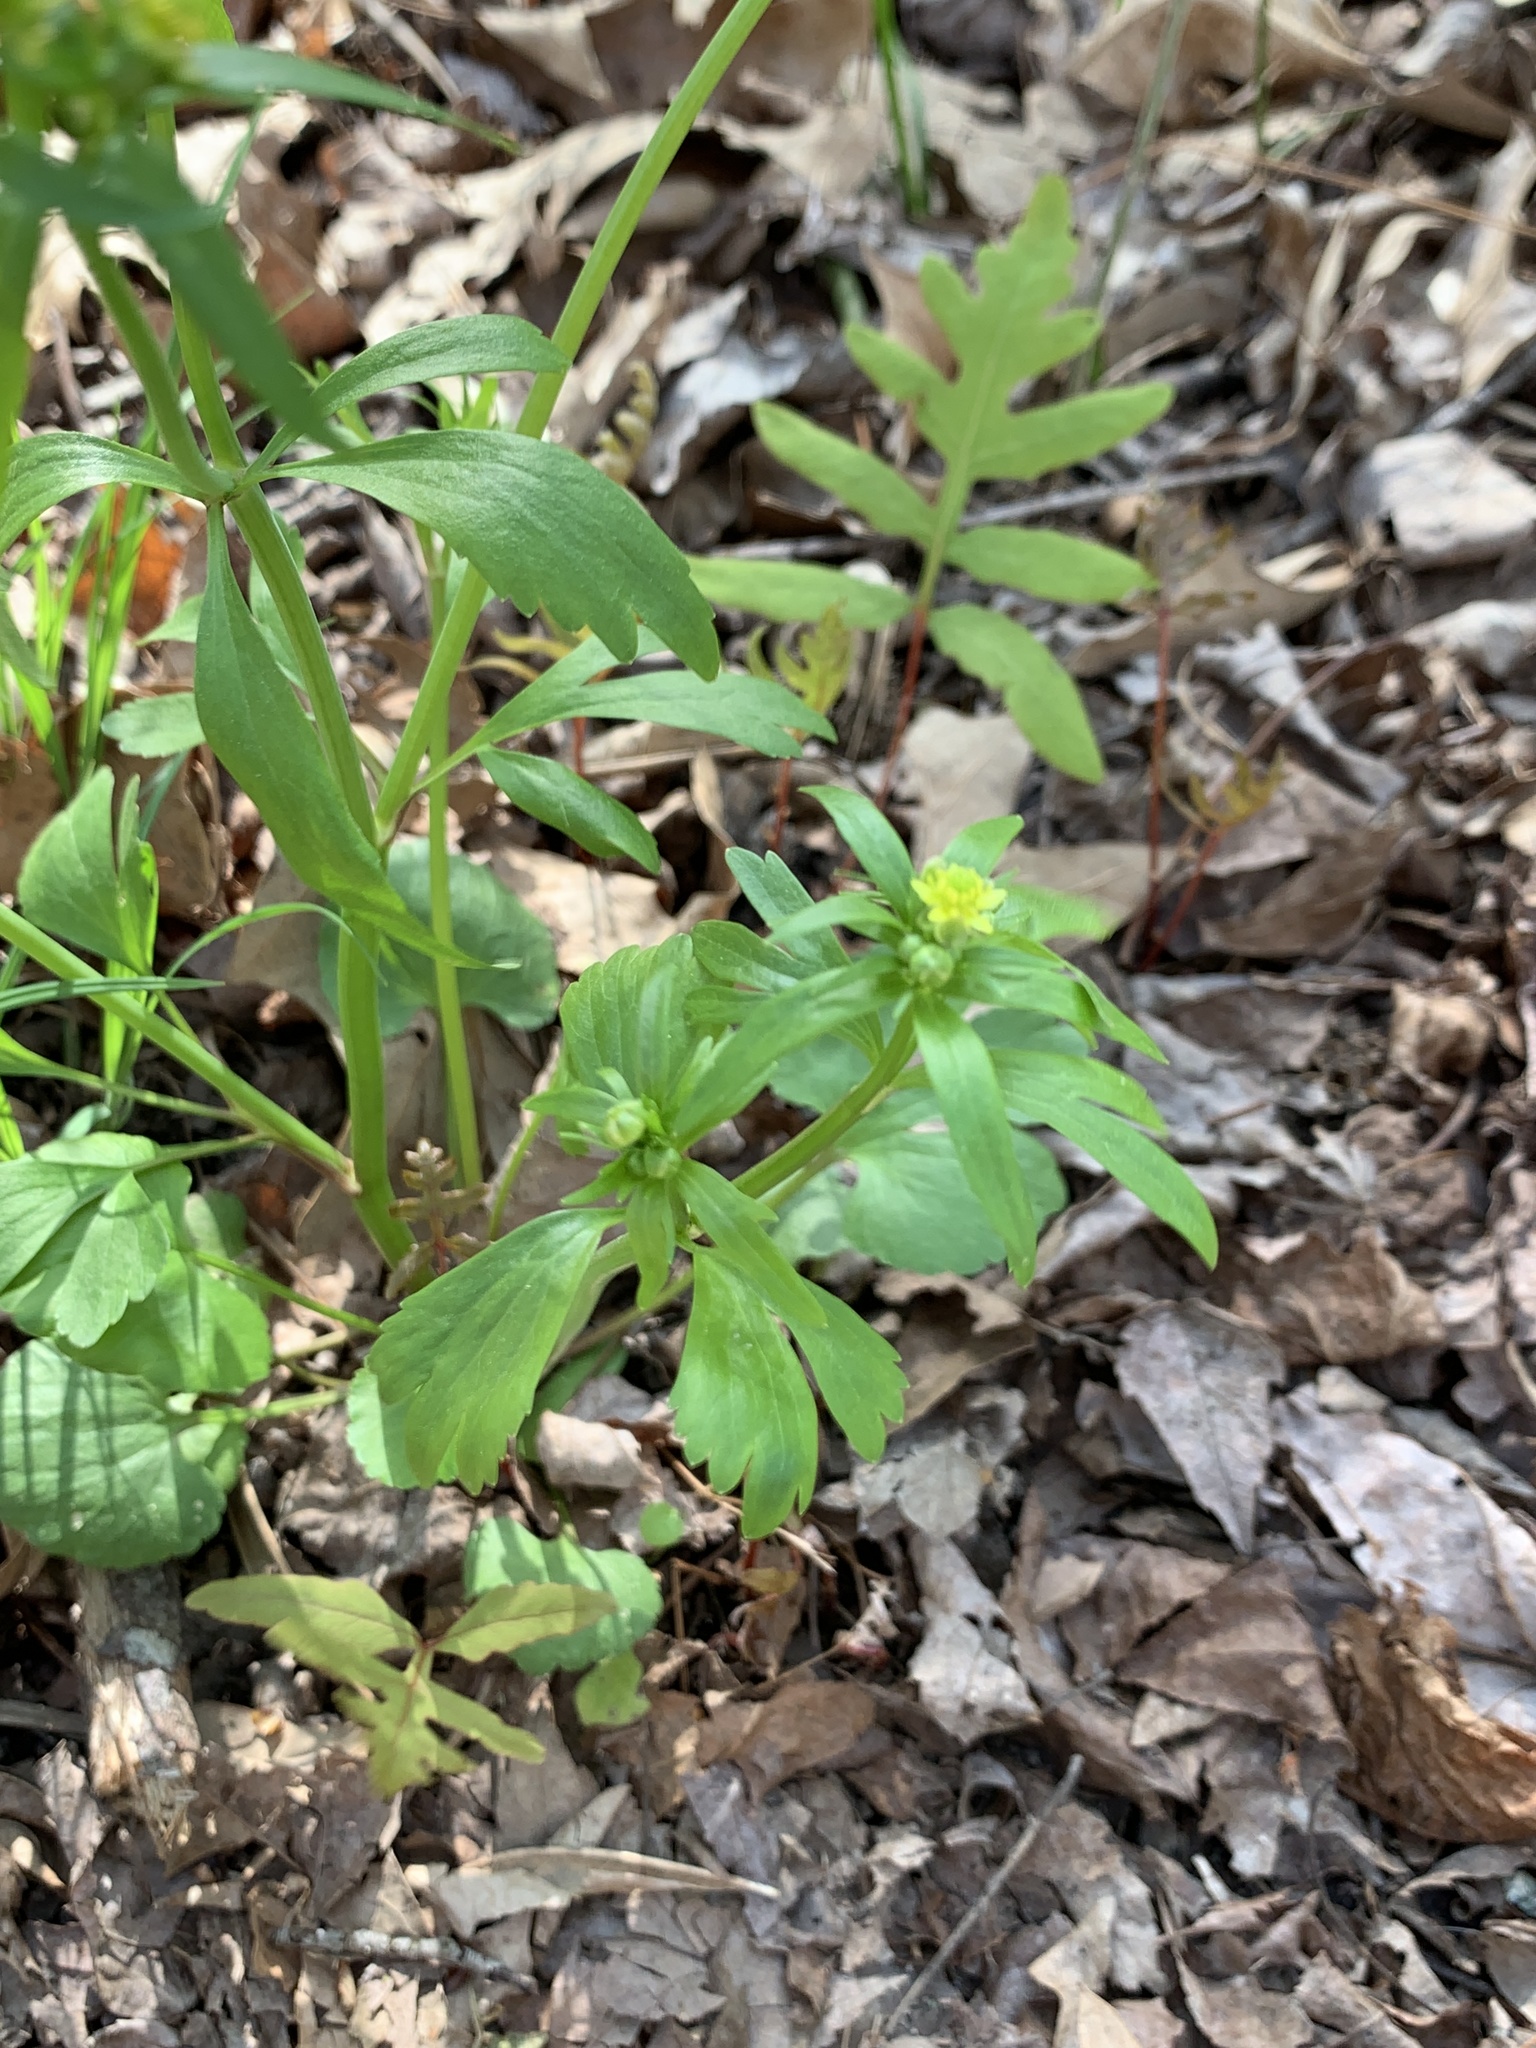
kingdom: Plantae
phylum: Tracheophyta
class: Magnoliopsida
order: Ranunculales
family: Ranunculaceae
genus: Ranunculus
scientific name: Ranunculus abortivus
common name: Early wood buttercup
